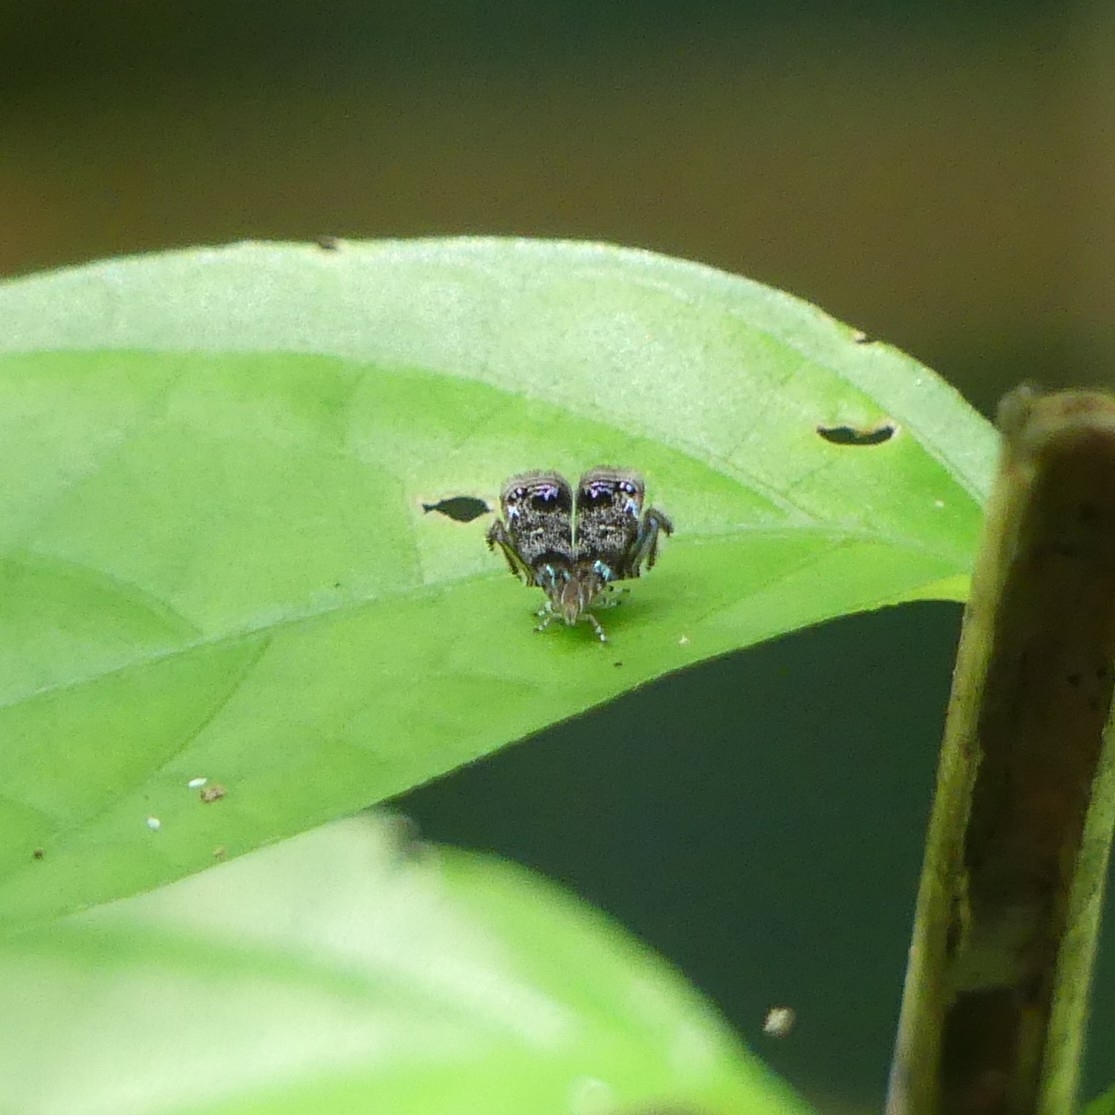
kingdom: Animalia
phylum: Arthropoda
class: Insecta
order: Lepidoptera
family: Choreutidae
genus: Brenthia
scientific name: Brenthia
